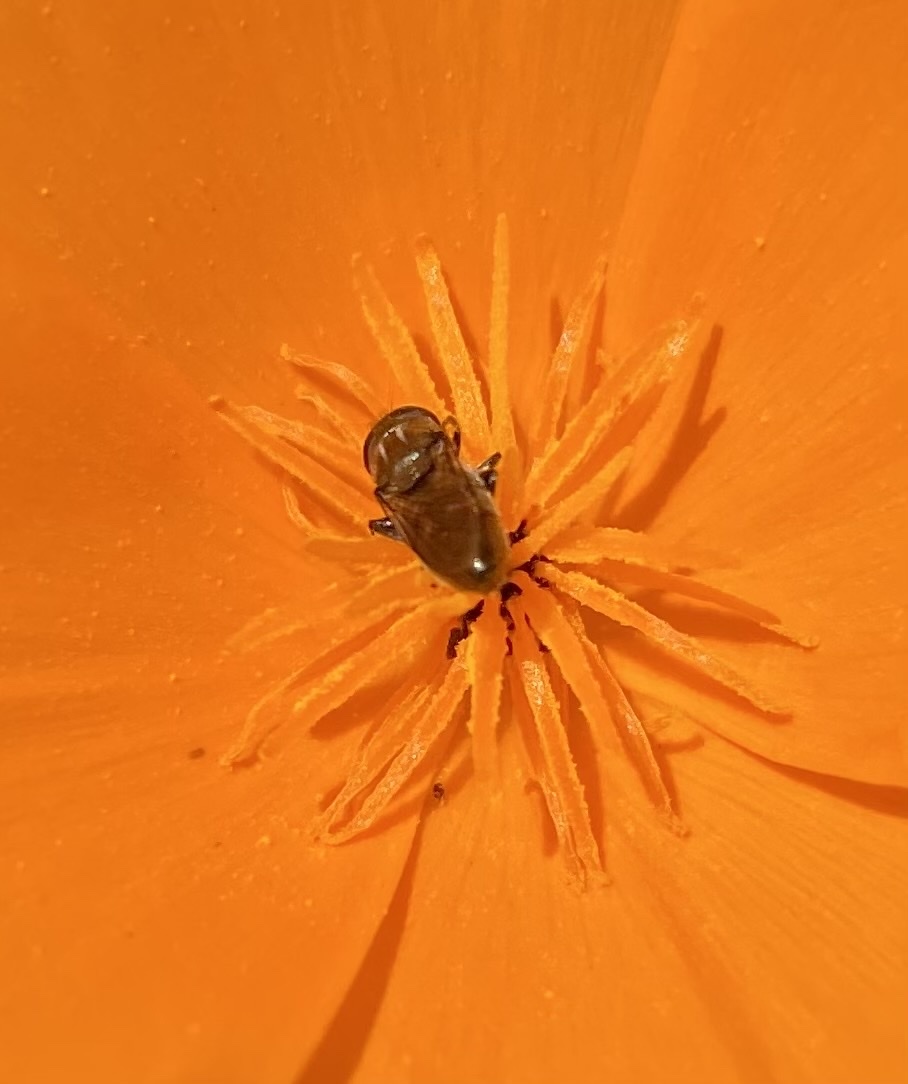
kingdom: Animalia
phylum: Arthropoda
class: Insecta
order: Diptera
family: Syrphidae
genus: Eumerus
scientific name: Eumerus
